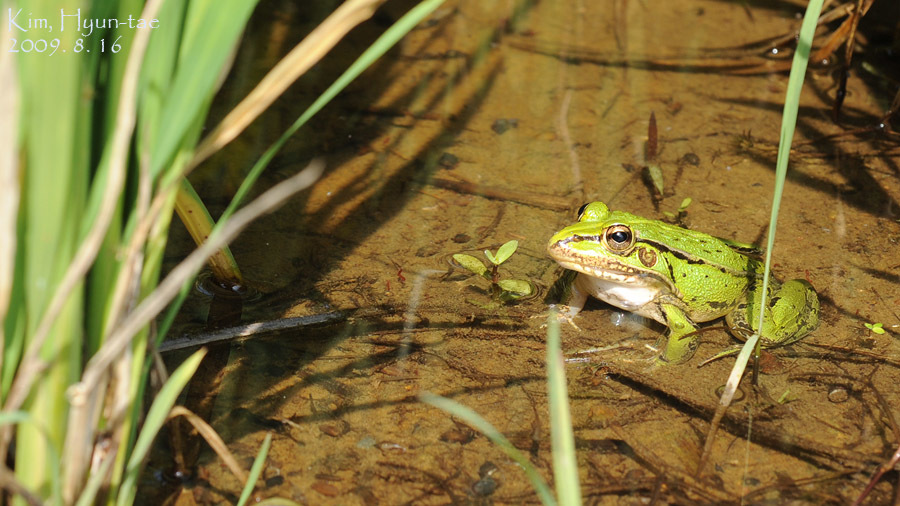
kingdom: Animalia
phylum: Chordata
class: Amphibia
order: Anura
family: Ranidae
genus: Pelophylax
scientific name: Pelophylax nigromaculatus
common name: Black-spotted pond frog
